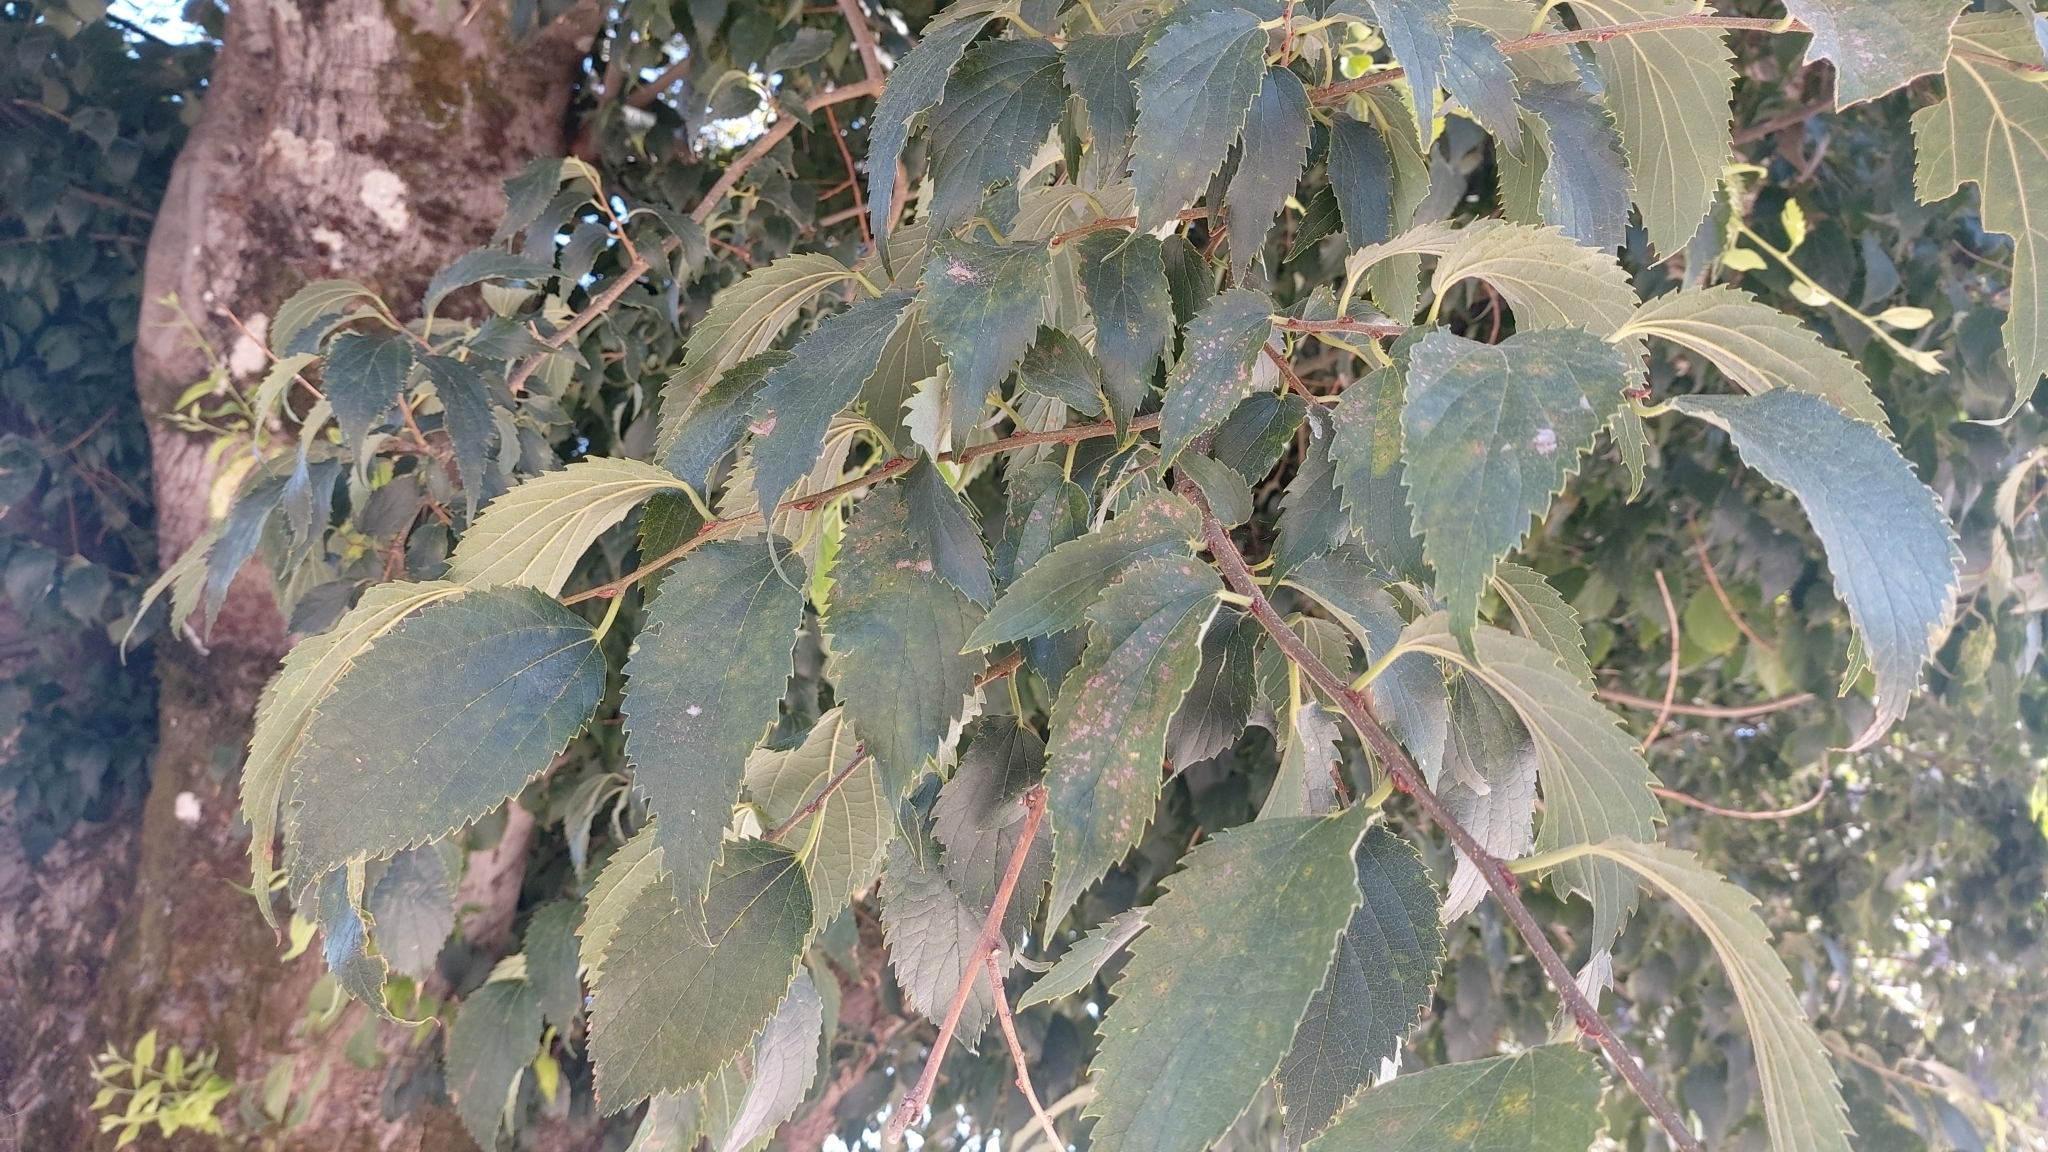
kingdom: Plantae
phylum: Tracheophyta
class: Magnoliopsida
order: Rosales
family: Cannabaceae
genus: Celtis
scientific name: Celtis australis
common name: European hackberry
